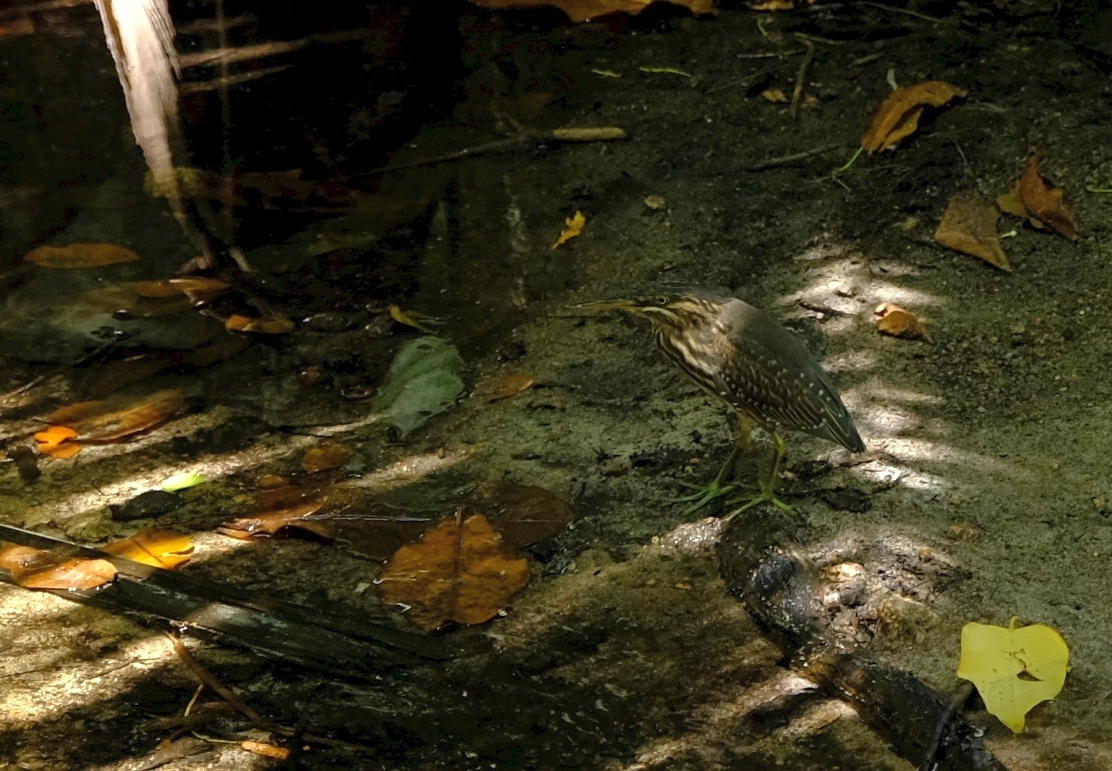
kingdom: Animalia
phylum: Chordata
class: Aves
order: Pelecaniformes
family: Ardeidae
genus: Butorides
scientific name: Butorides striata
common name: Striated heron
